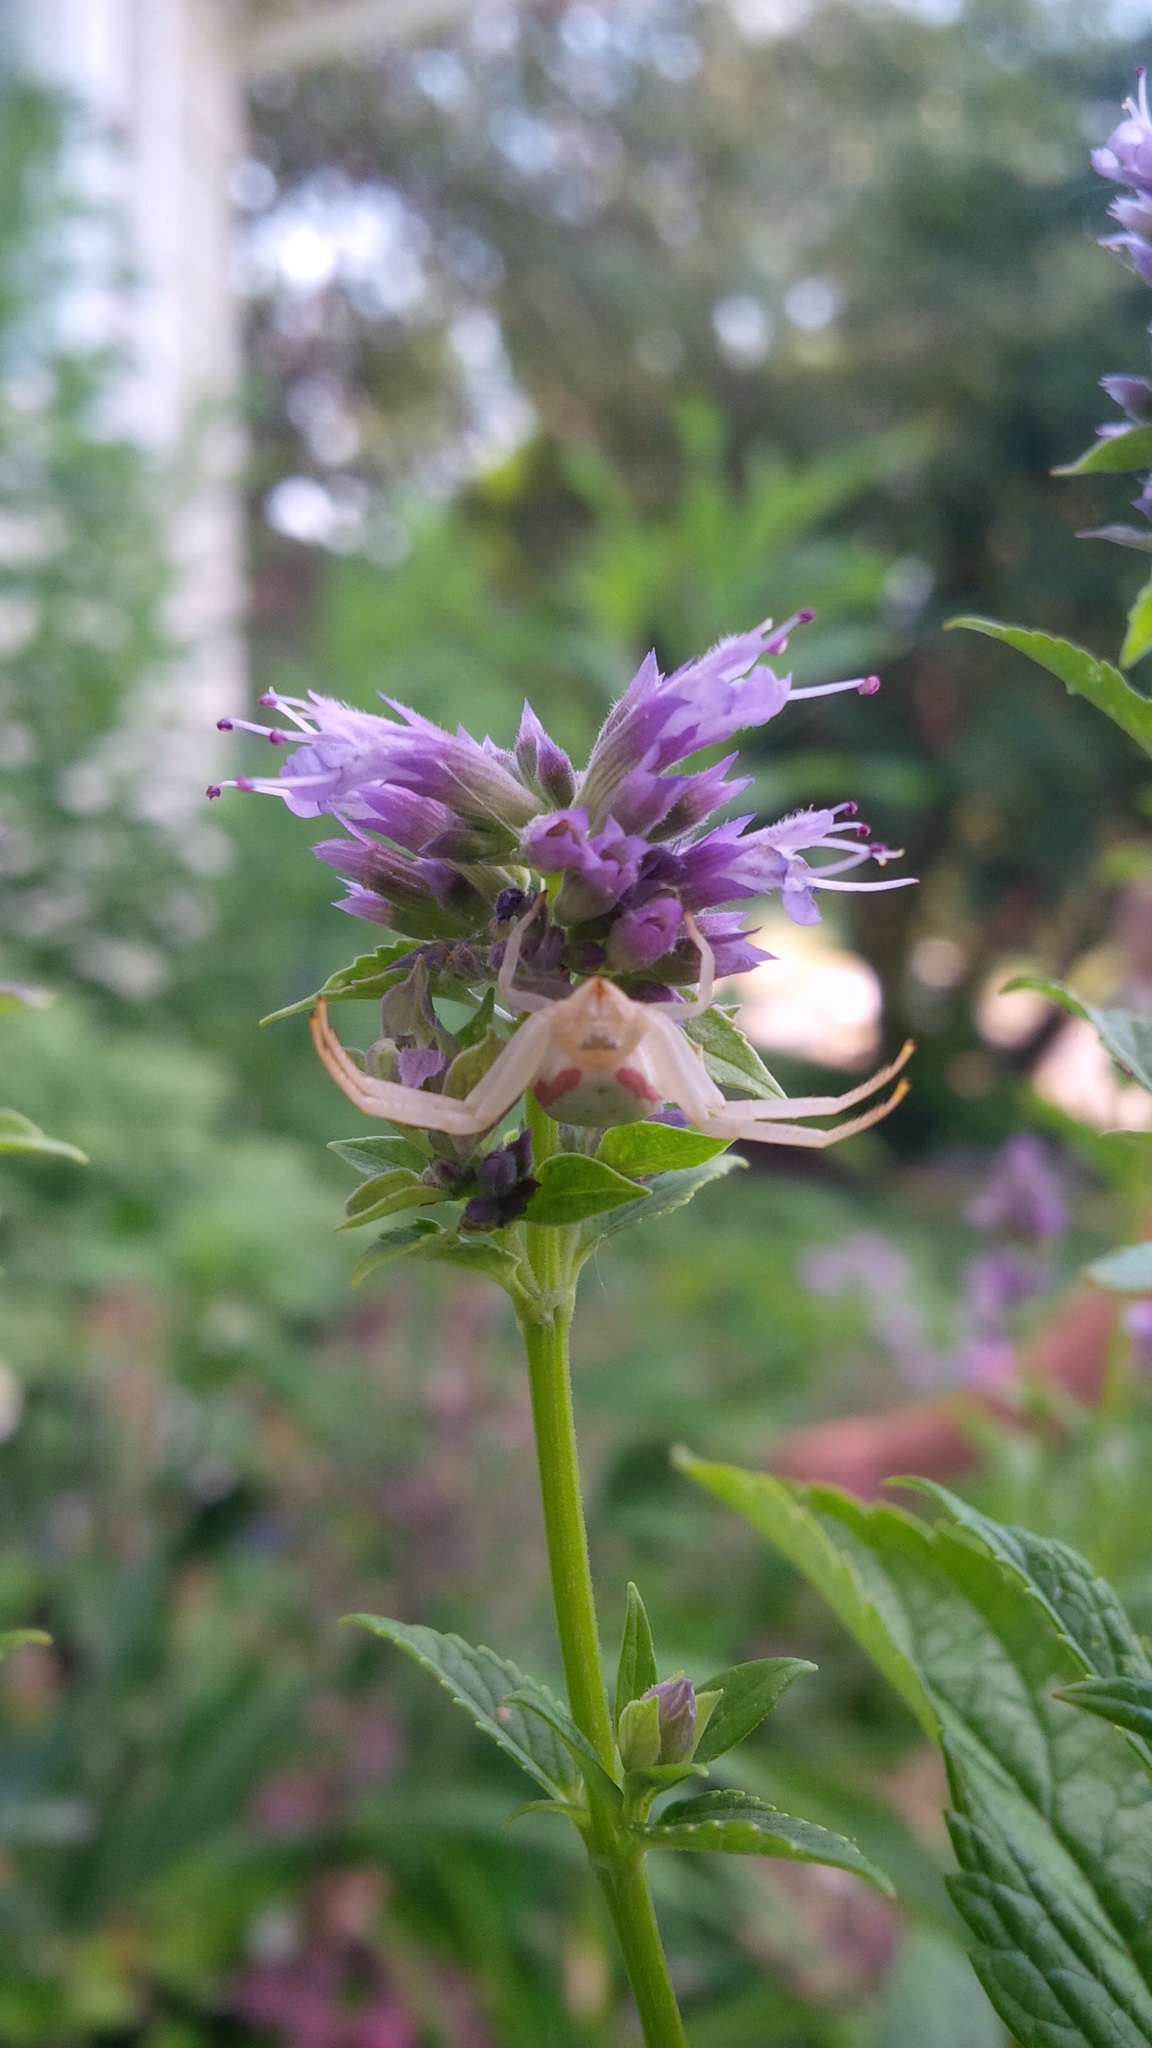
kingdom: Animalia
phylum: Arthropoda
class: Arachnida
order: Araneae
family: Thomisidae
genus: Misumena
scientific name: Misumena vatia
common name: Goldenrod crab spider
